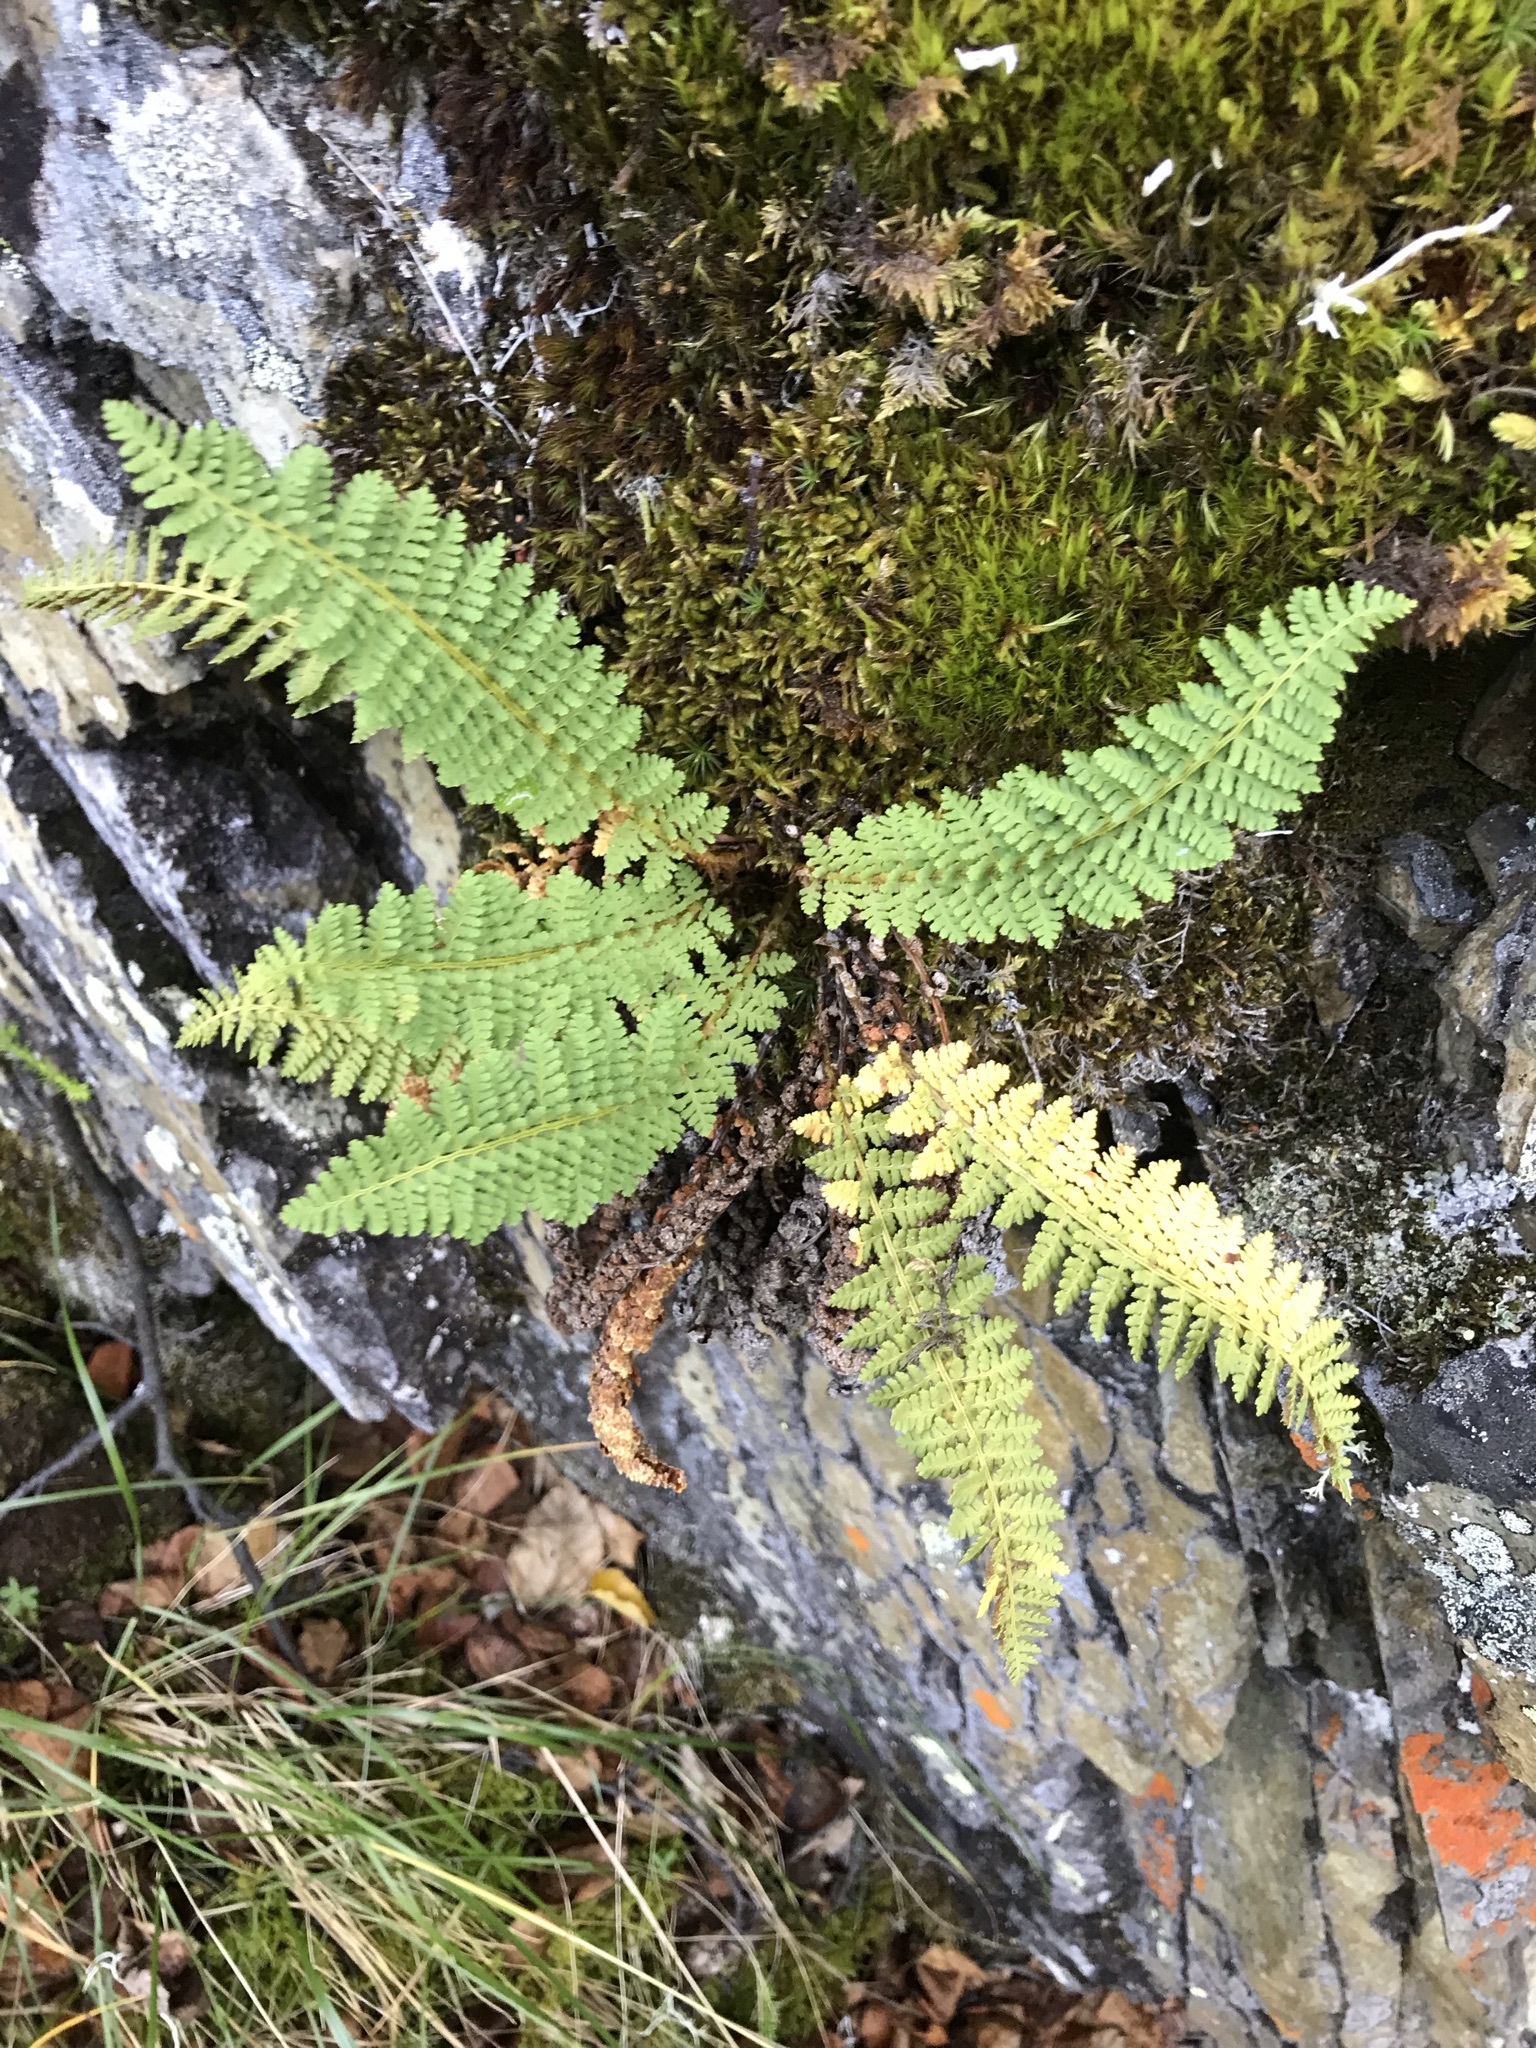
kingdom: Plantae
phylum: Tracheophyta
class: Polypodiopsida
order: Polypodiales
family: Dryopteridaceae
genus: Dryopteris
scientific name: Dryopteris fragrans
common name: Fragrant wood fern
